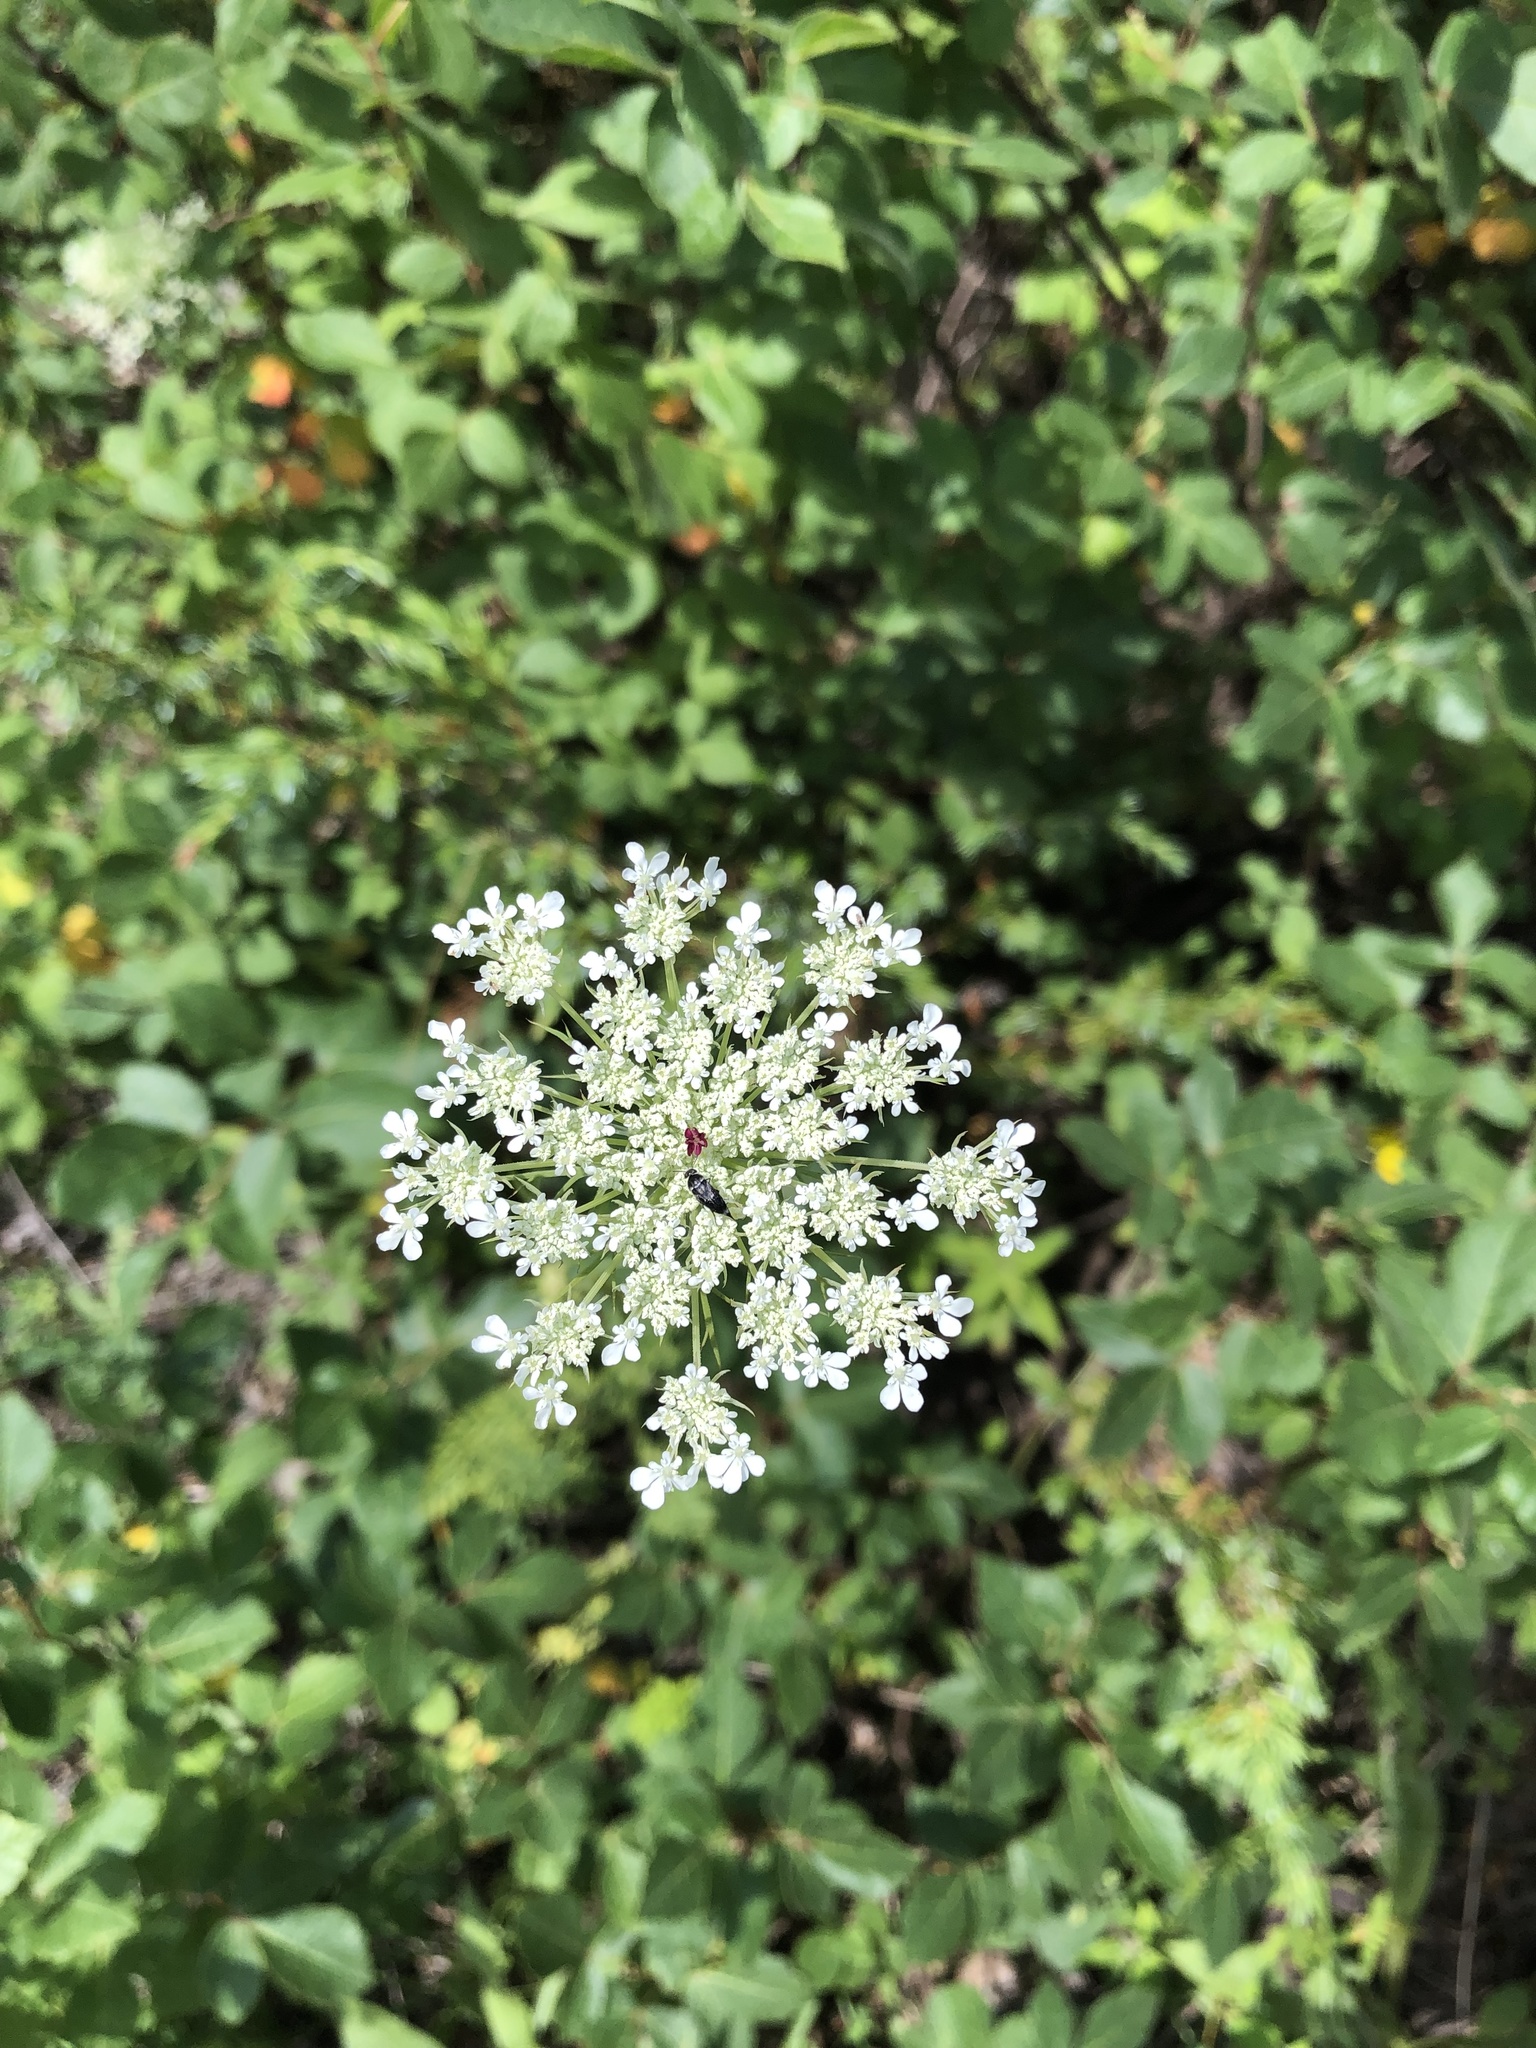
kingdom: Plantae
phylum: Tracheophyta
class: Magnoliopsida
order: Apiales
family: Apiaceae
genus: Daucus
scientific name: Daucus carota
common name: Wild carrot
